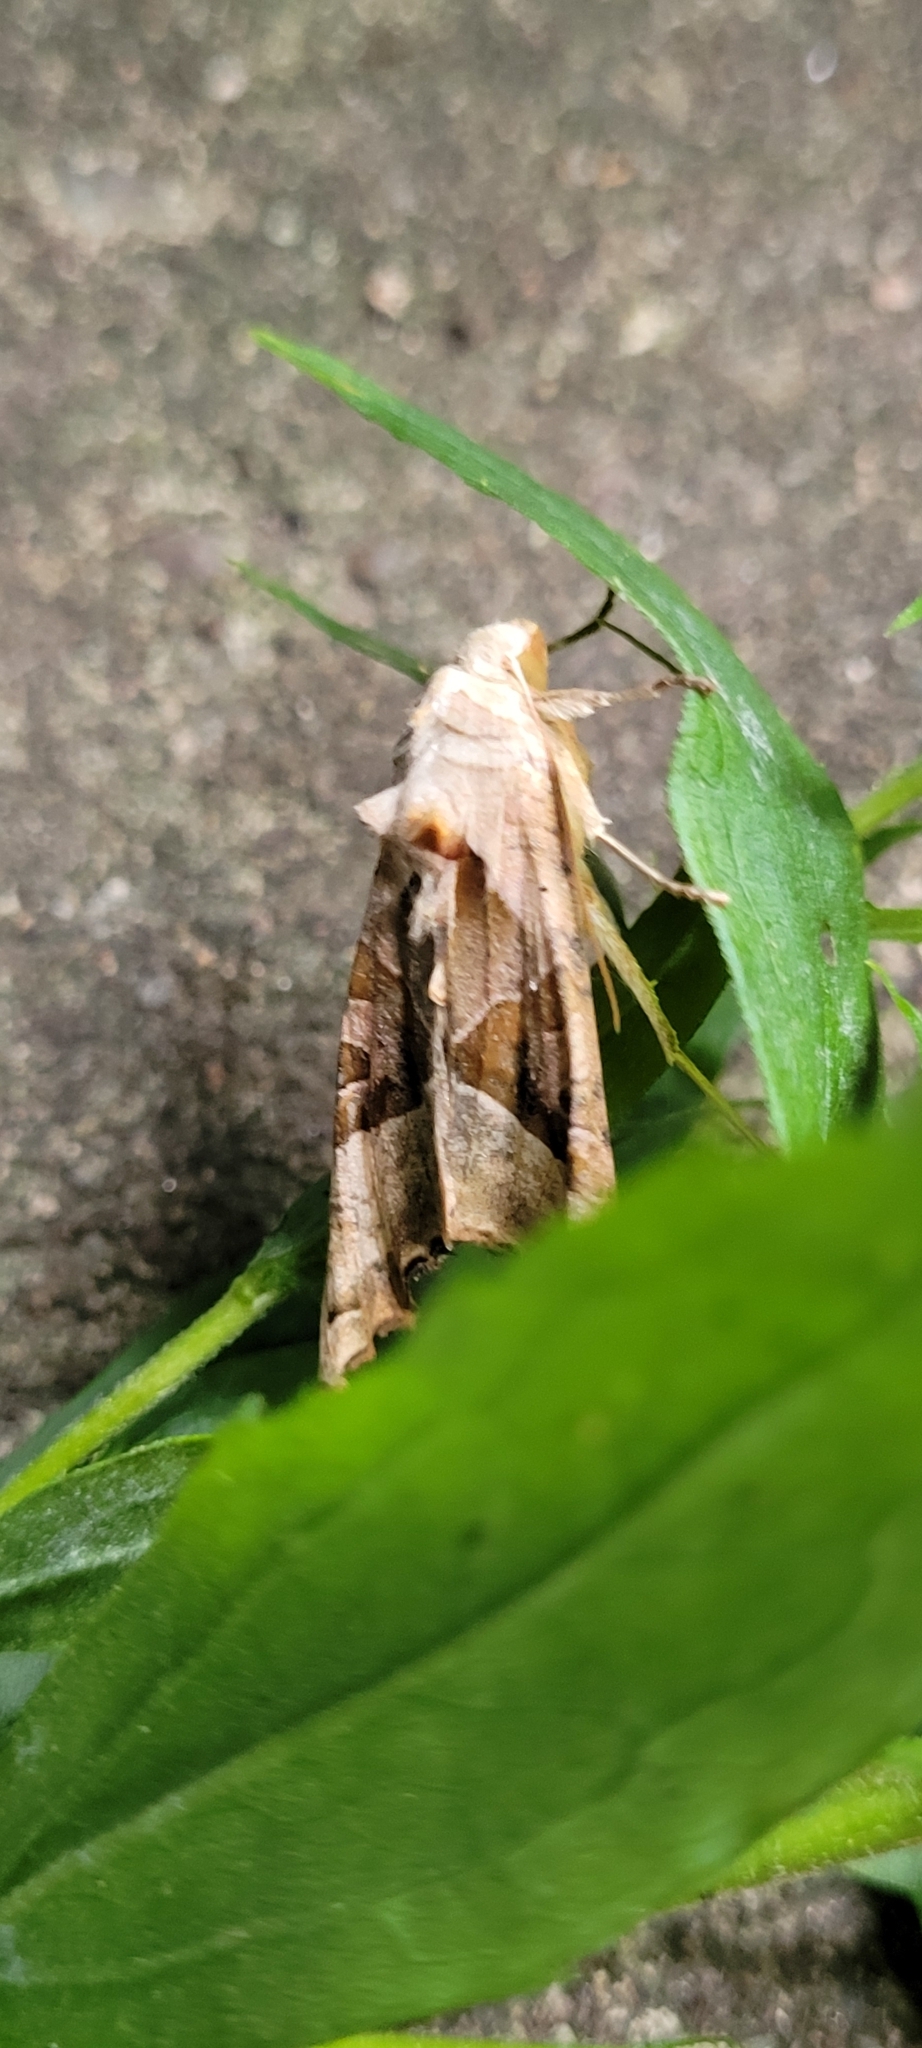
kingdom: Animalia
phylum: Arthropoda
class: Insecta
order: Lepidoptera
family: Noctuidae
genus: Phlogophora
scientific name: Phlogophora meticulosa
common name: Angle shades
